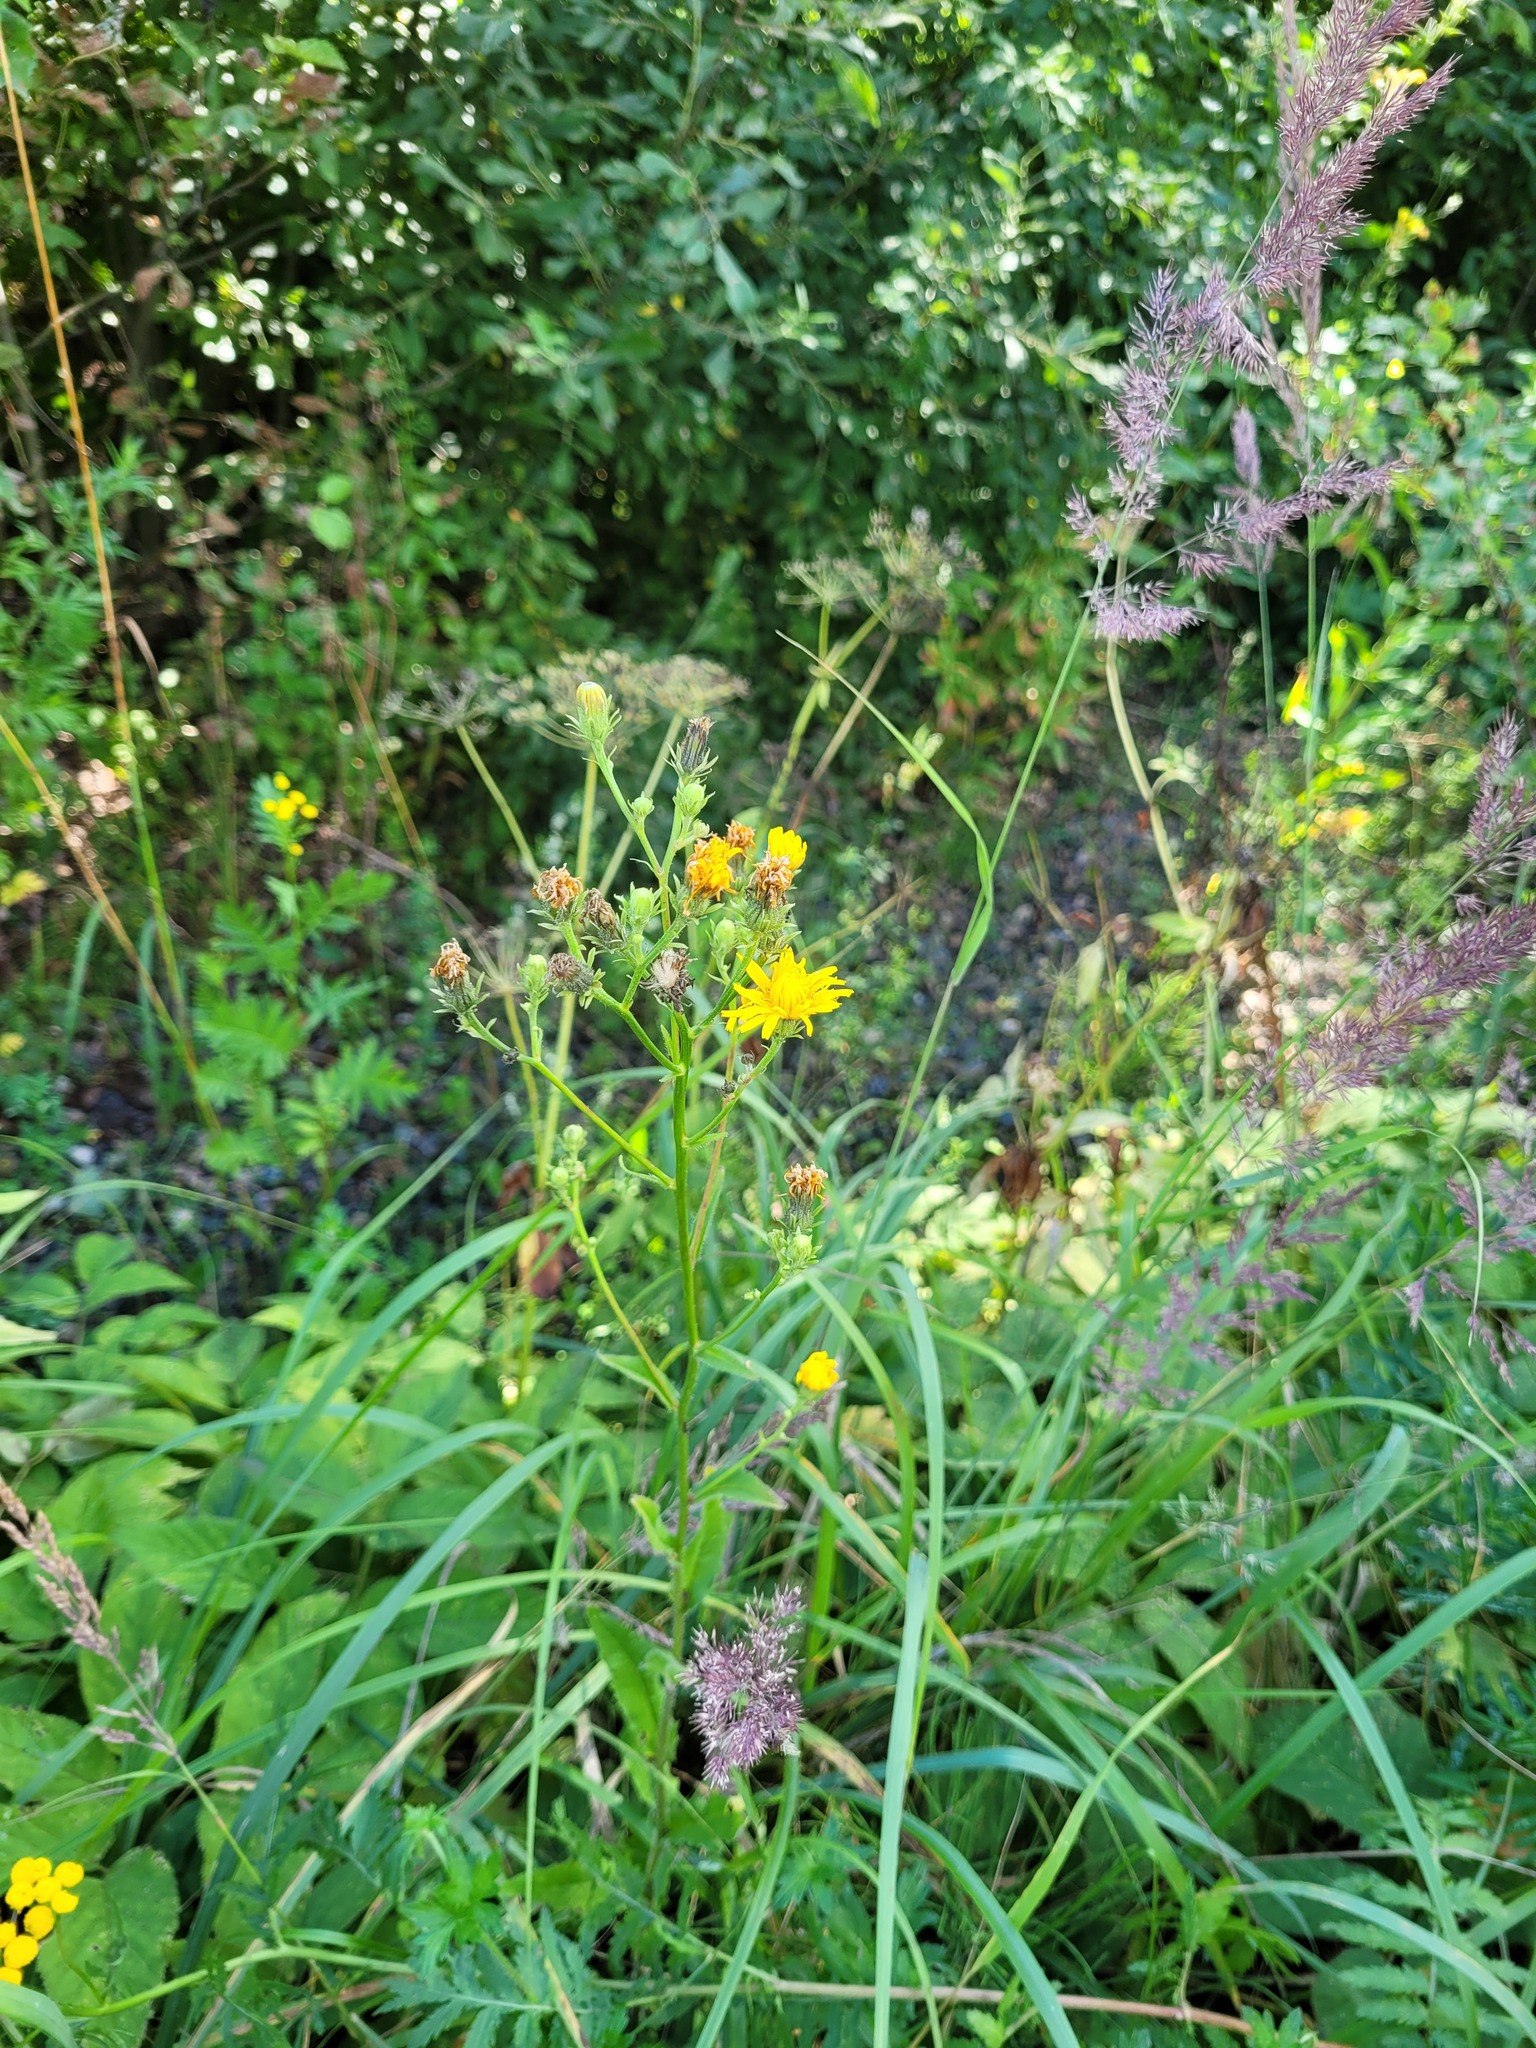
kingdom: Plantae
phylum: Tracheophyta
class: Magnoliopsida
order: Asterales
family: Asteraceae
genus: Picris
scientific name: Picris hieracioides
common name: Hawkweed oxtongue
